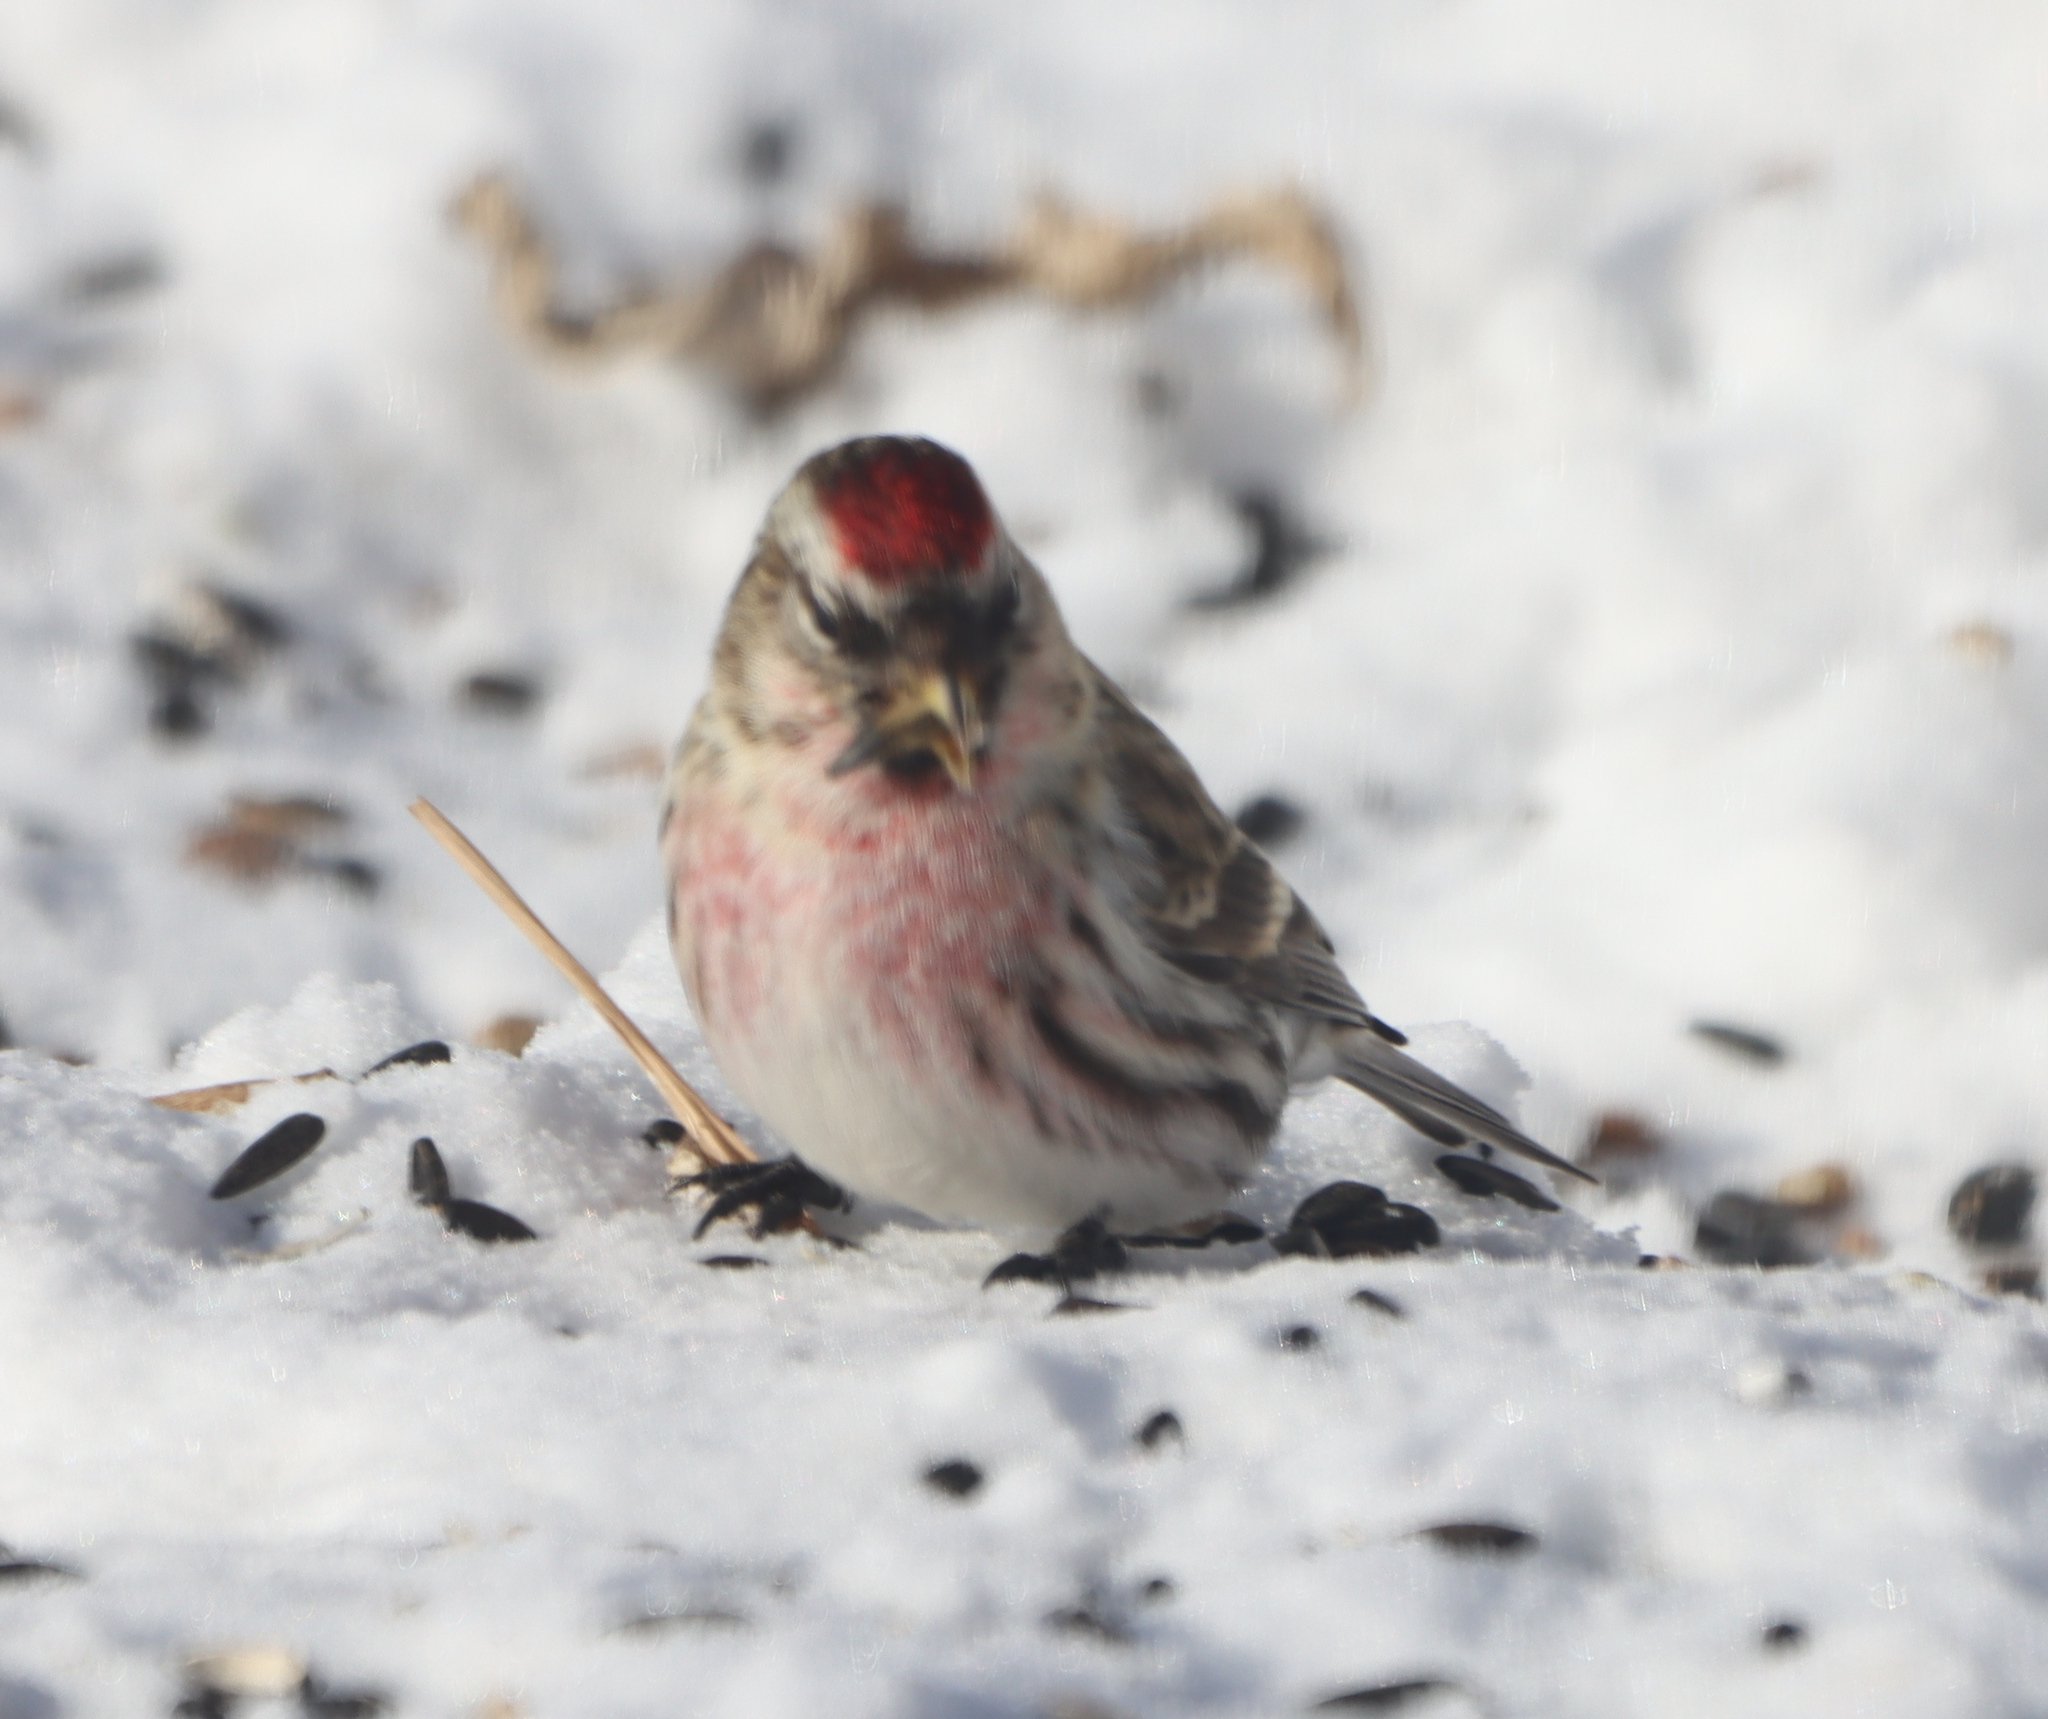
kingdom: Animalia
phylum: Chordata
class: Aves
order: Passeriformes
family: Fringillidae
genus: Acanthis
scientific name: Acanthis flammea
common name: Common redpoll
